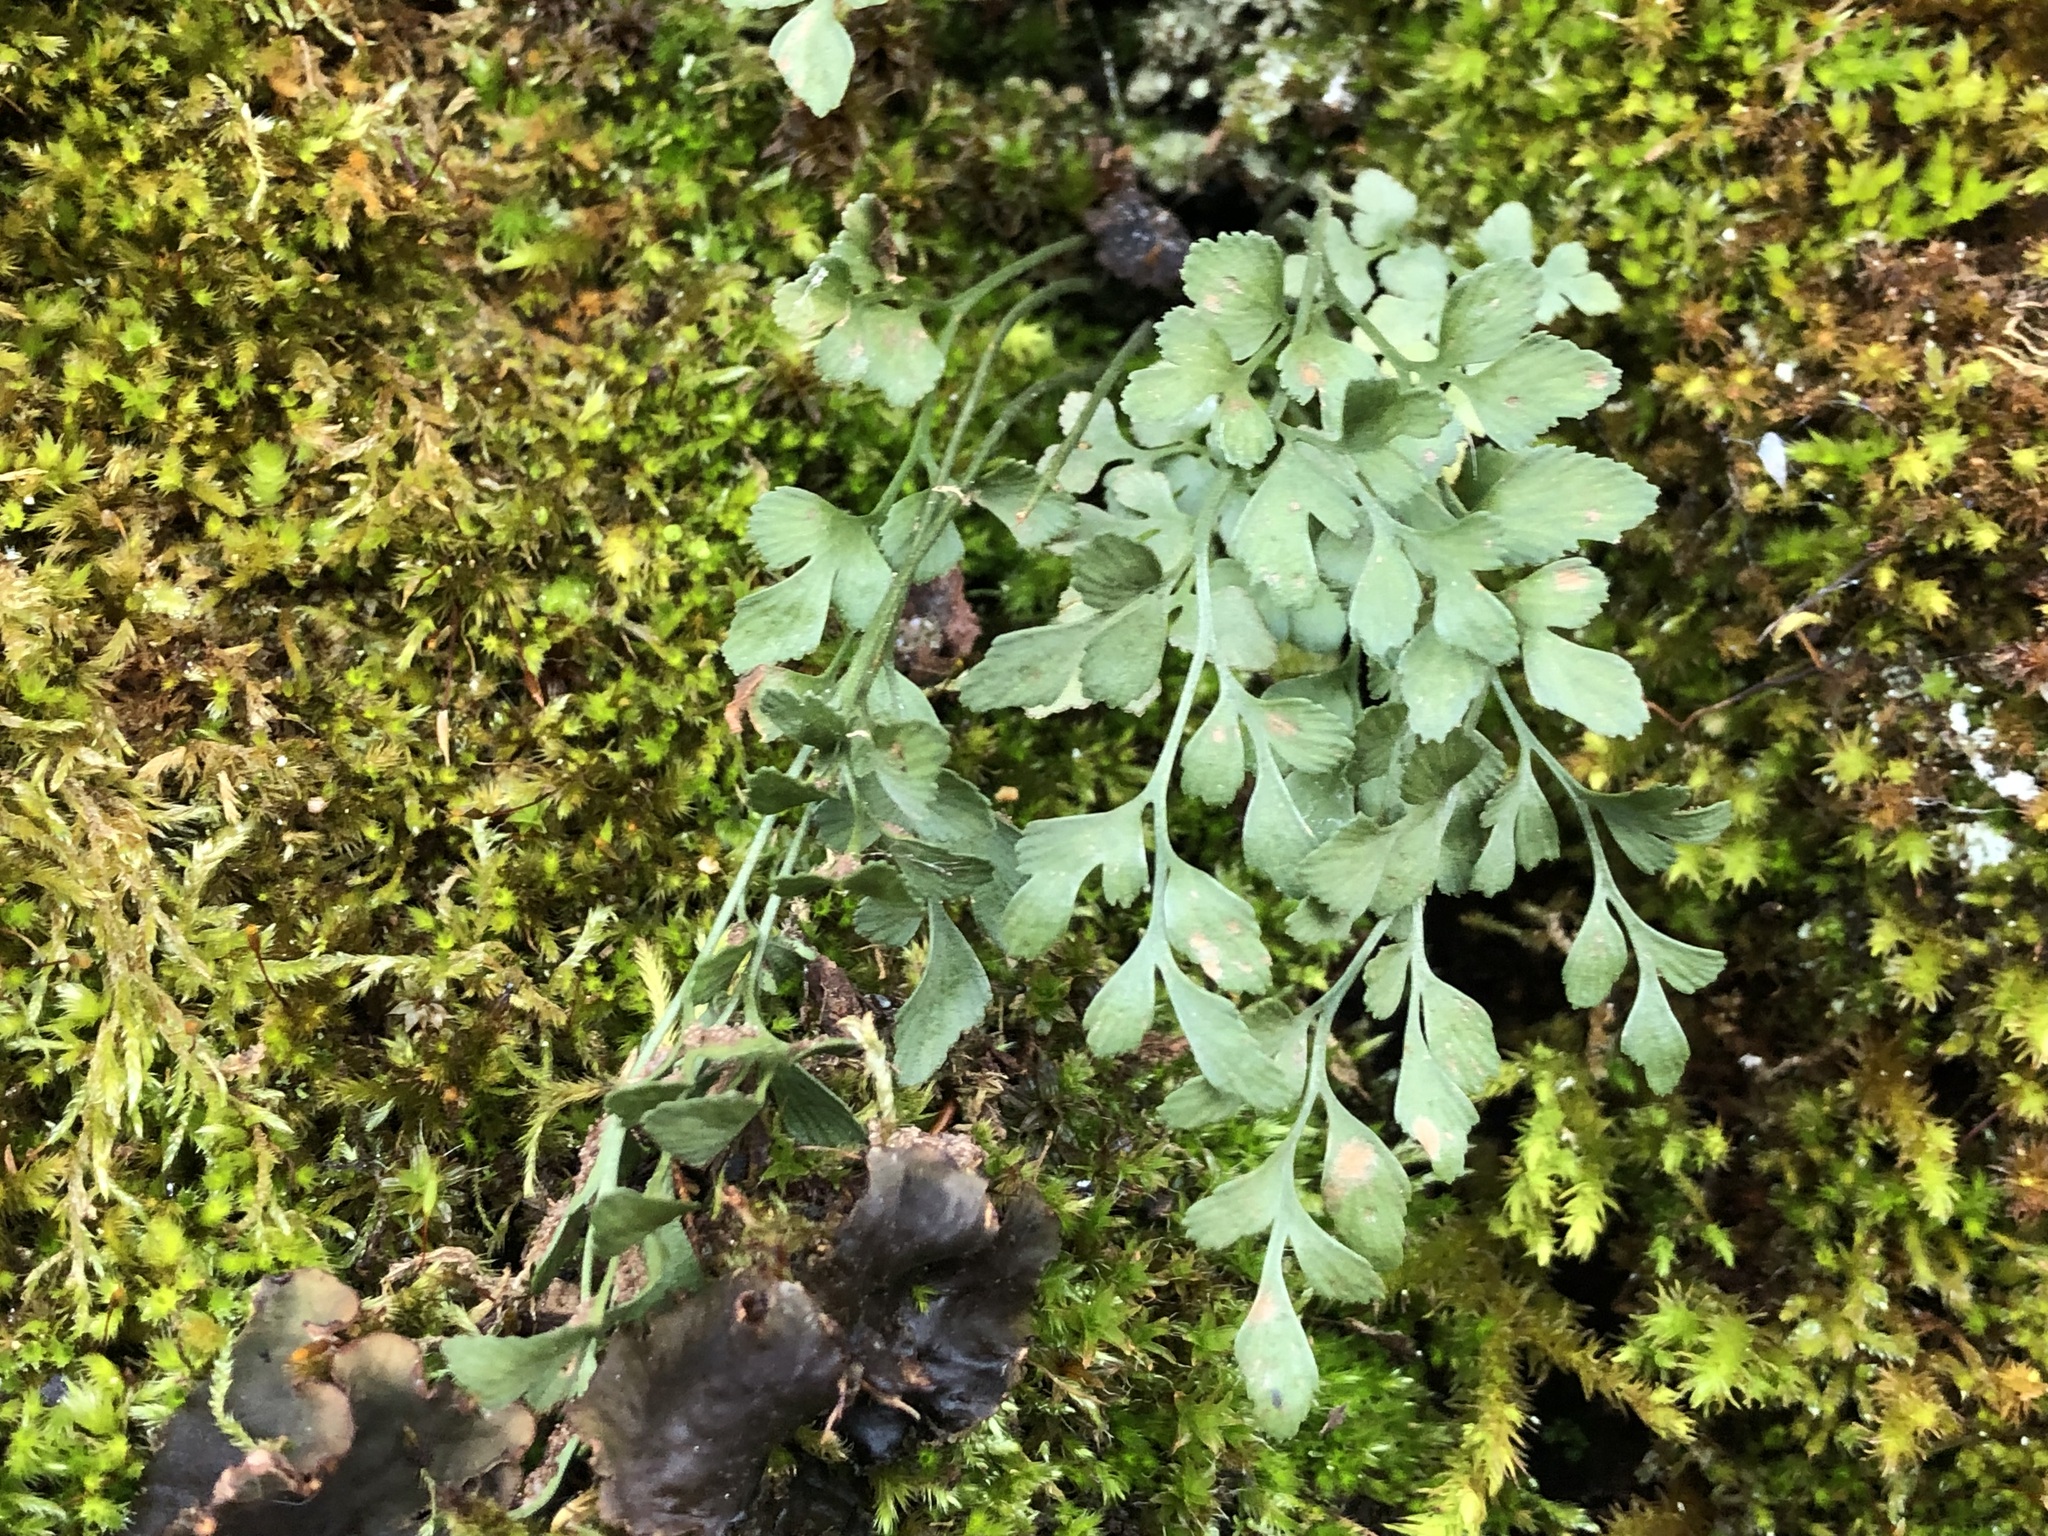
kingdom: Plantae
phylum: Tracheophyta
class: Polypodiopsida
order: Polypodiales
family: Aspleniaceae
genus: Asplenium
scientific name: Asplenium ruta-muraria
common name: Wall-rue
